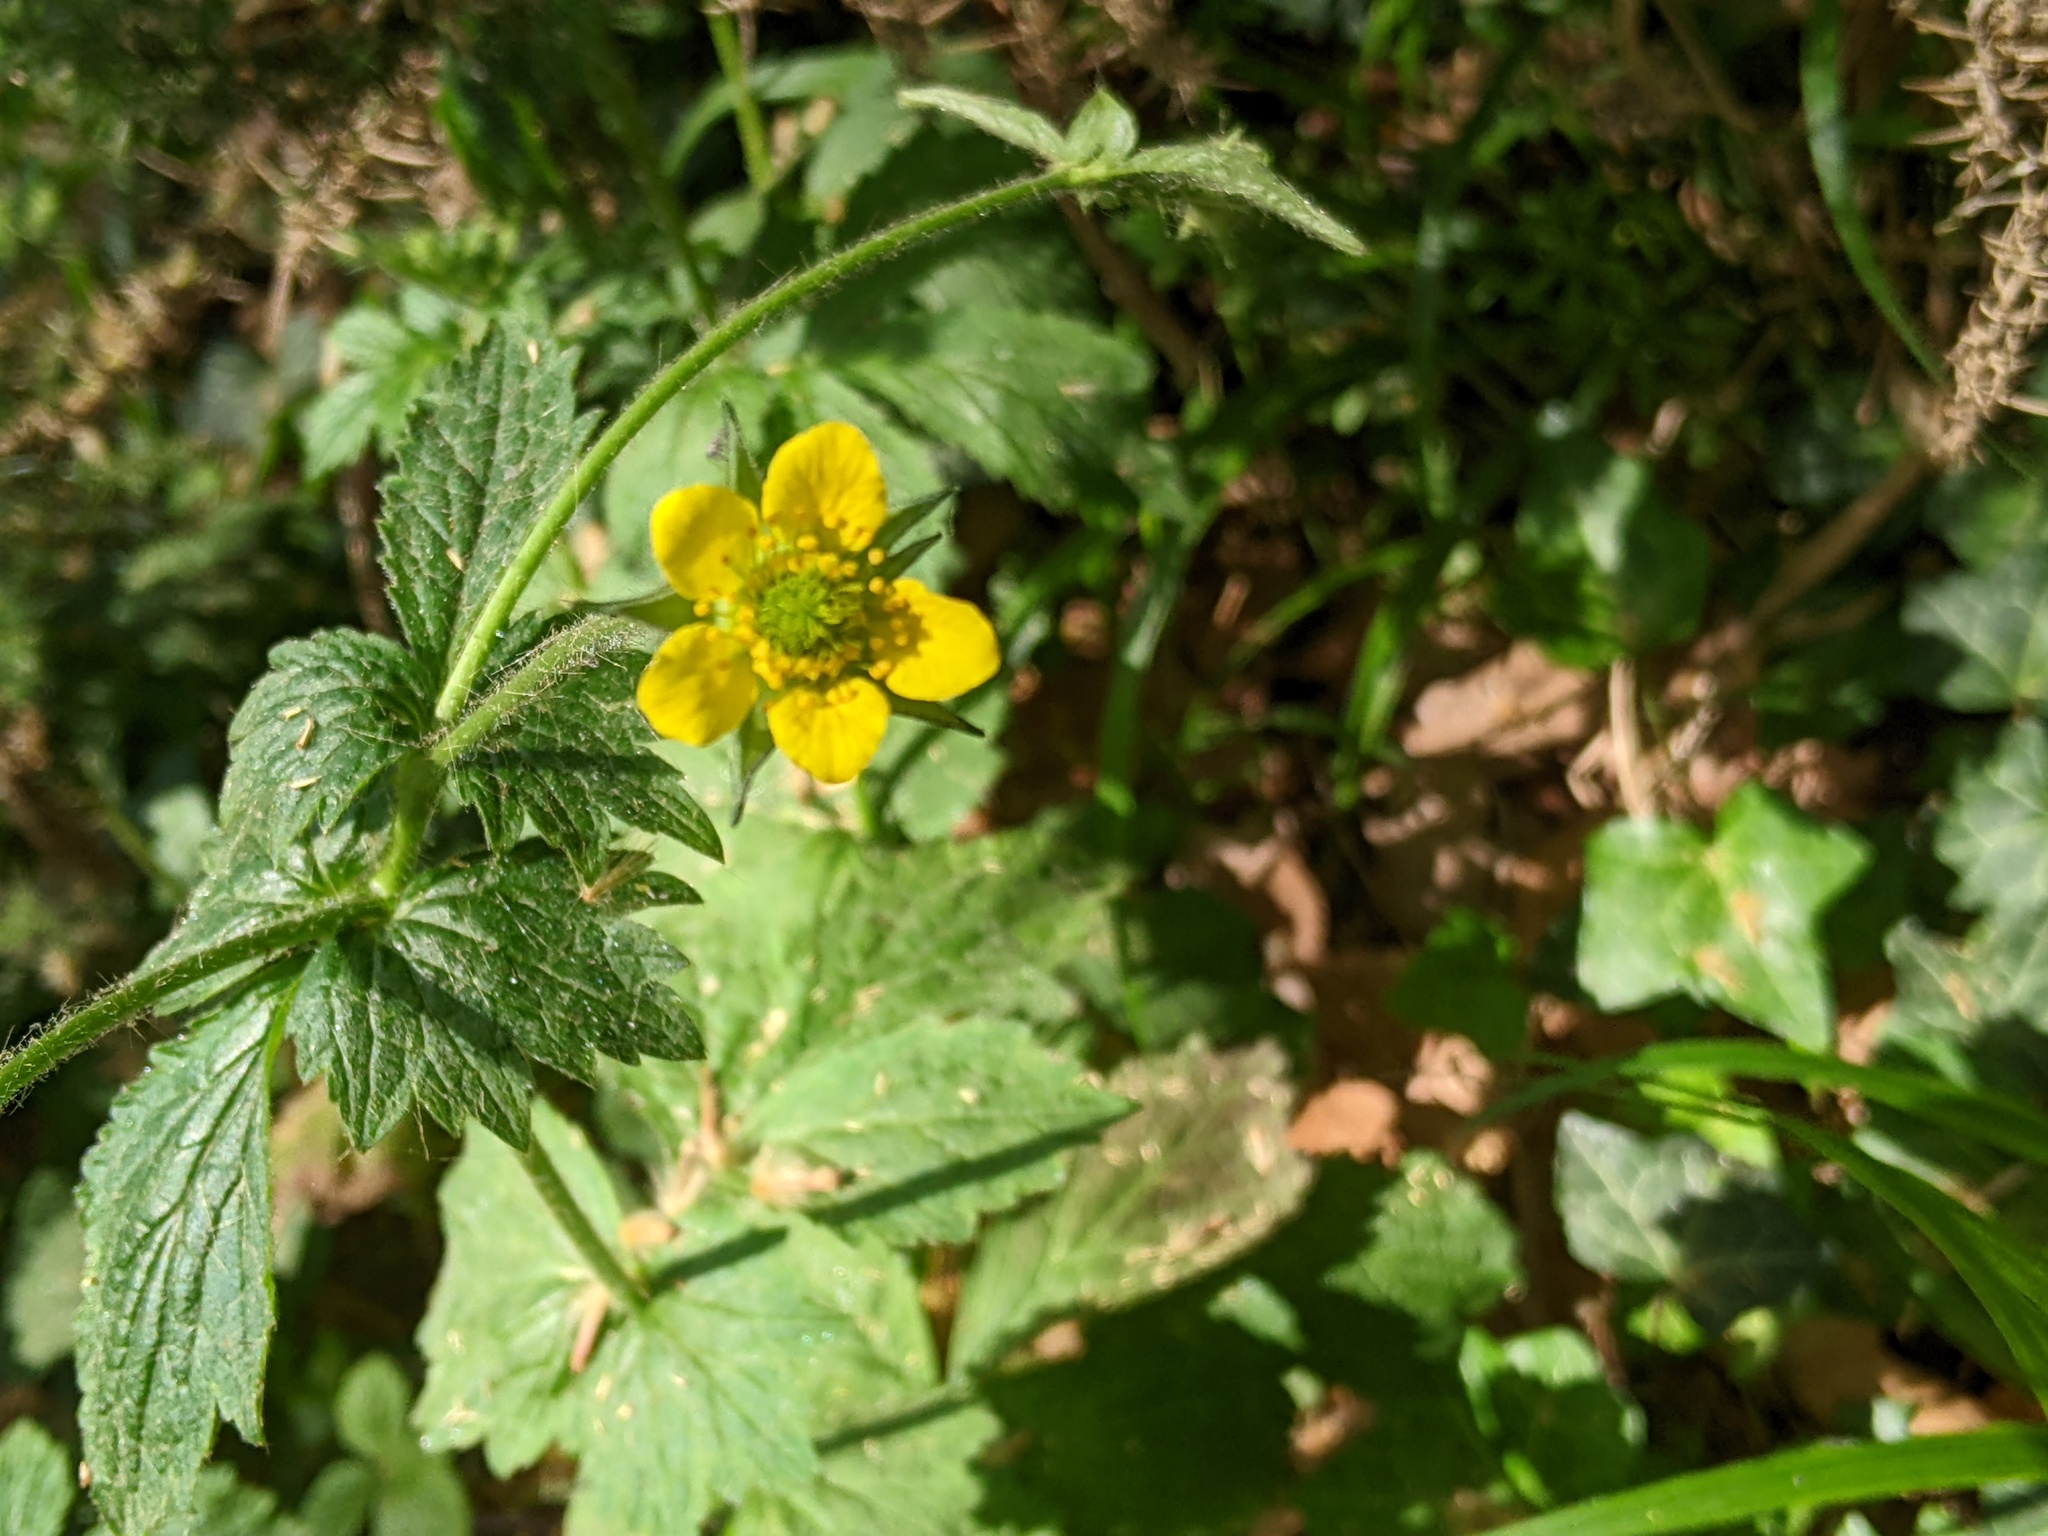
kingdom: Plantae
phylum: Tracheophyta
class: Magnoliopsida
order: Rosales
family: Rosaceae
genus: Geum
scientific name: Geum urbanum
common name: Wood avens
